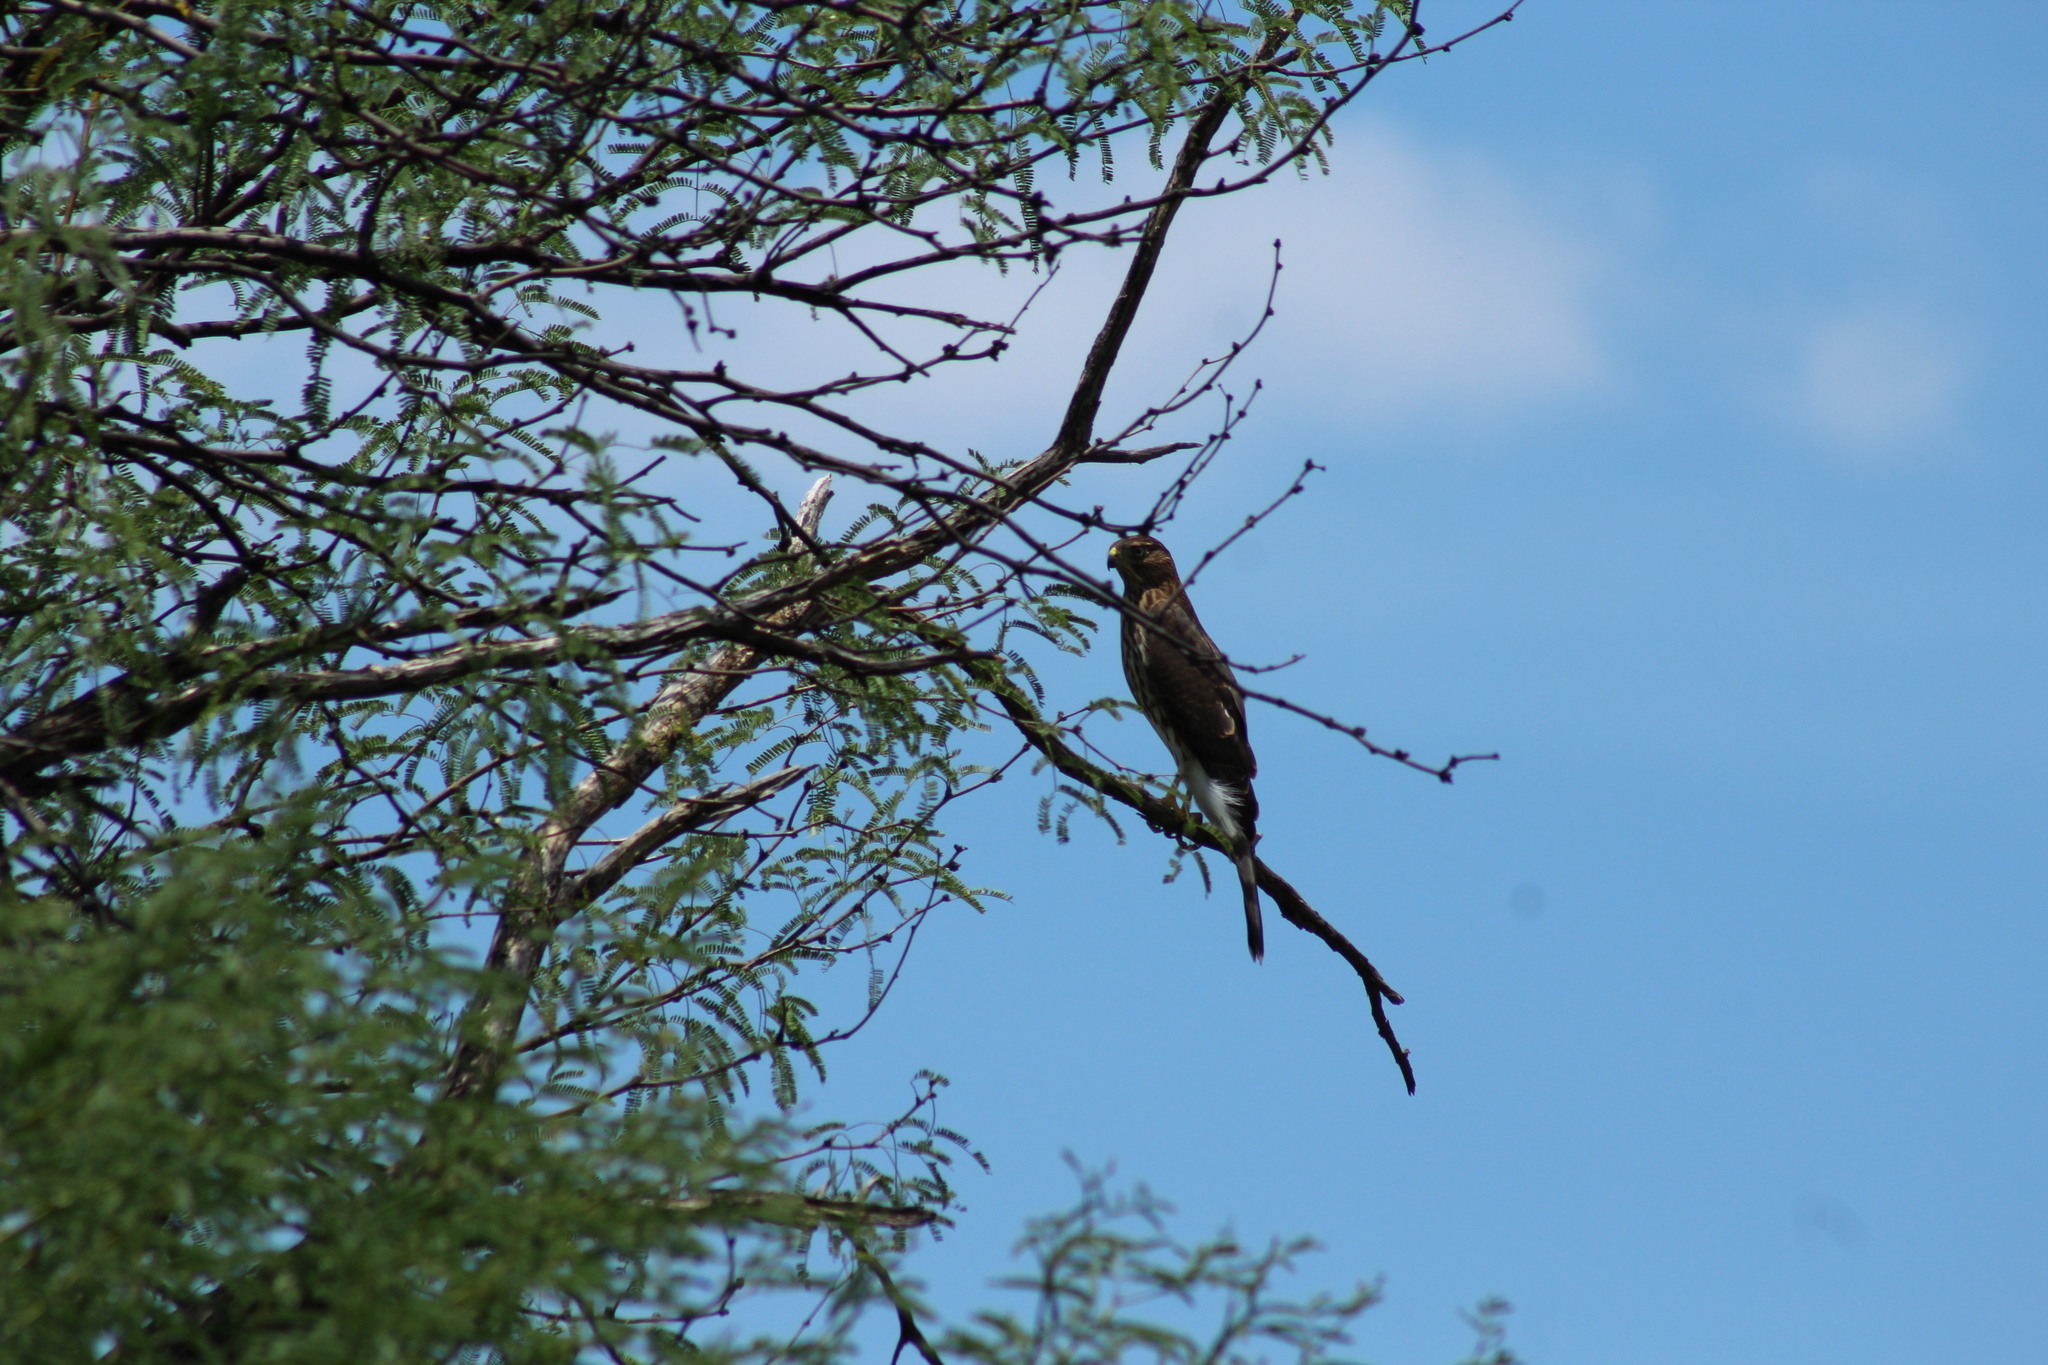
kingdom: Animalia
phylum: Chordata
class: Aves
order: Accipitriformes
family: Accipitridae
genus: Accipiter
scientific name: Accipiter cooperii
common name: Cooper's hawk
